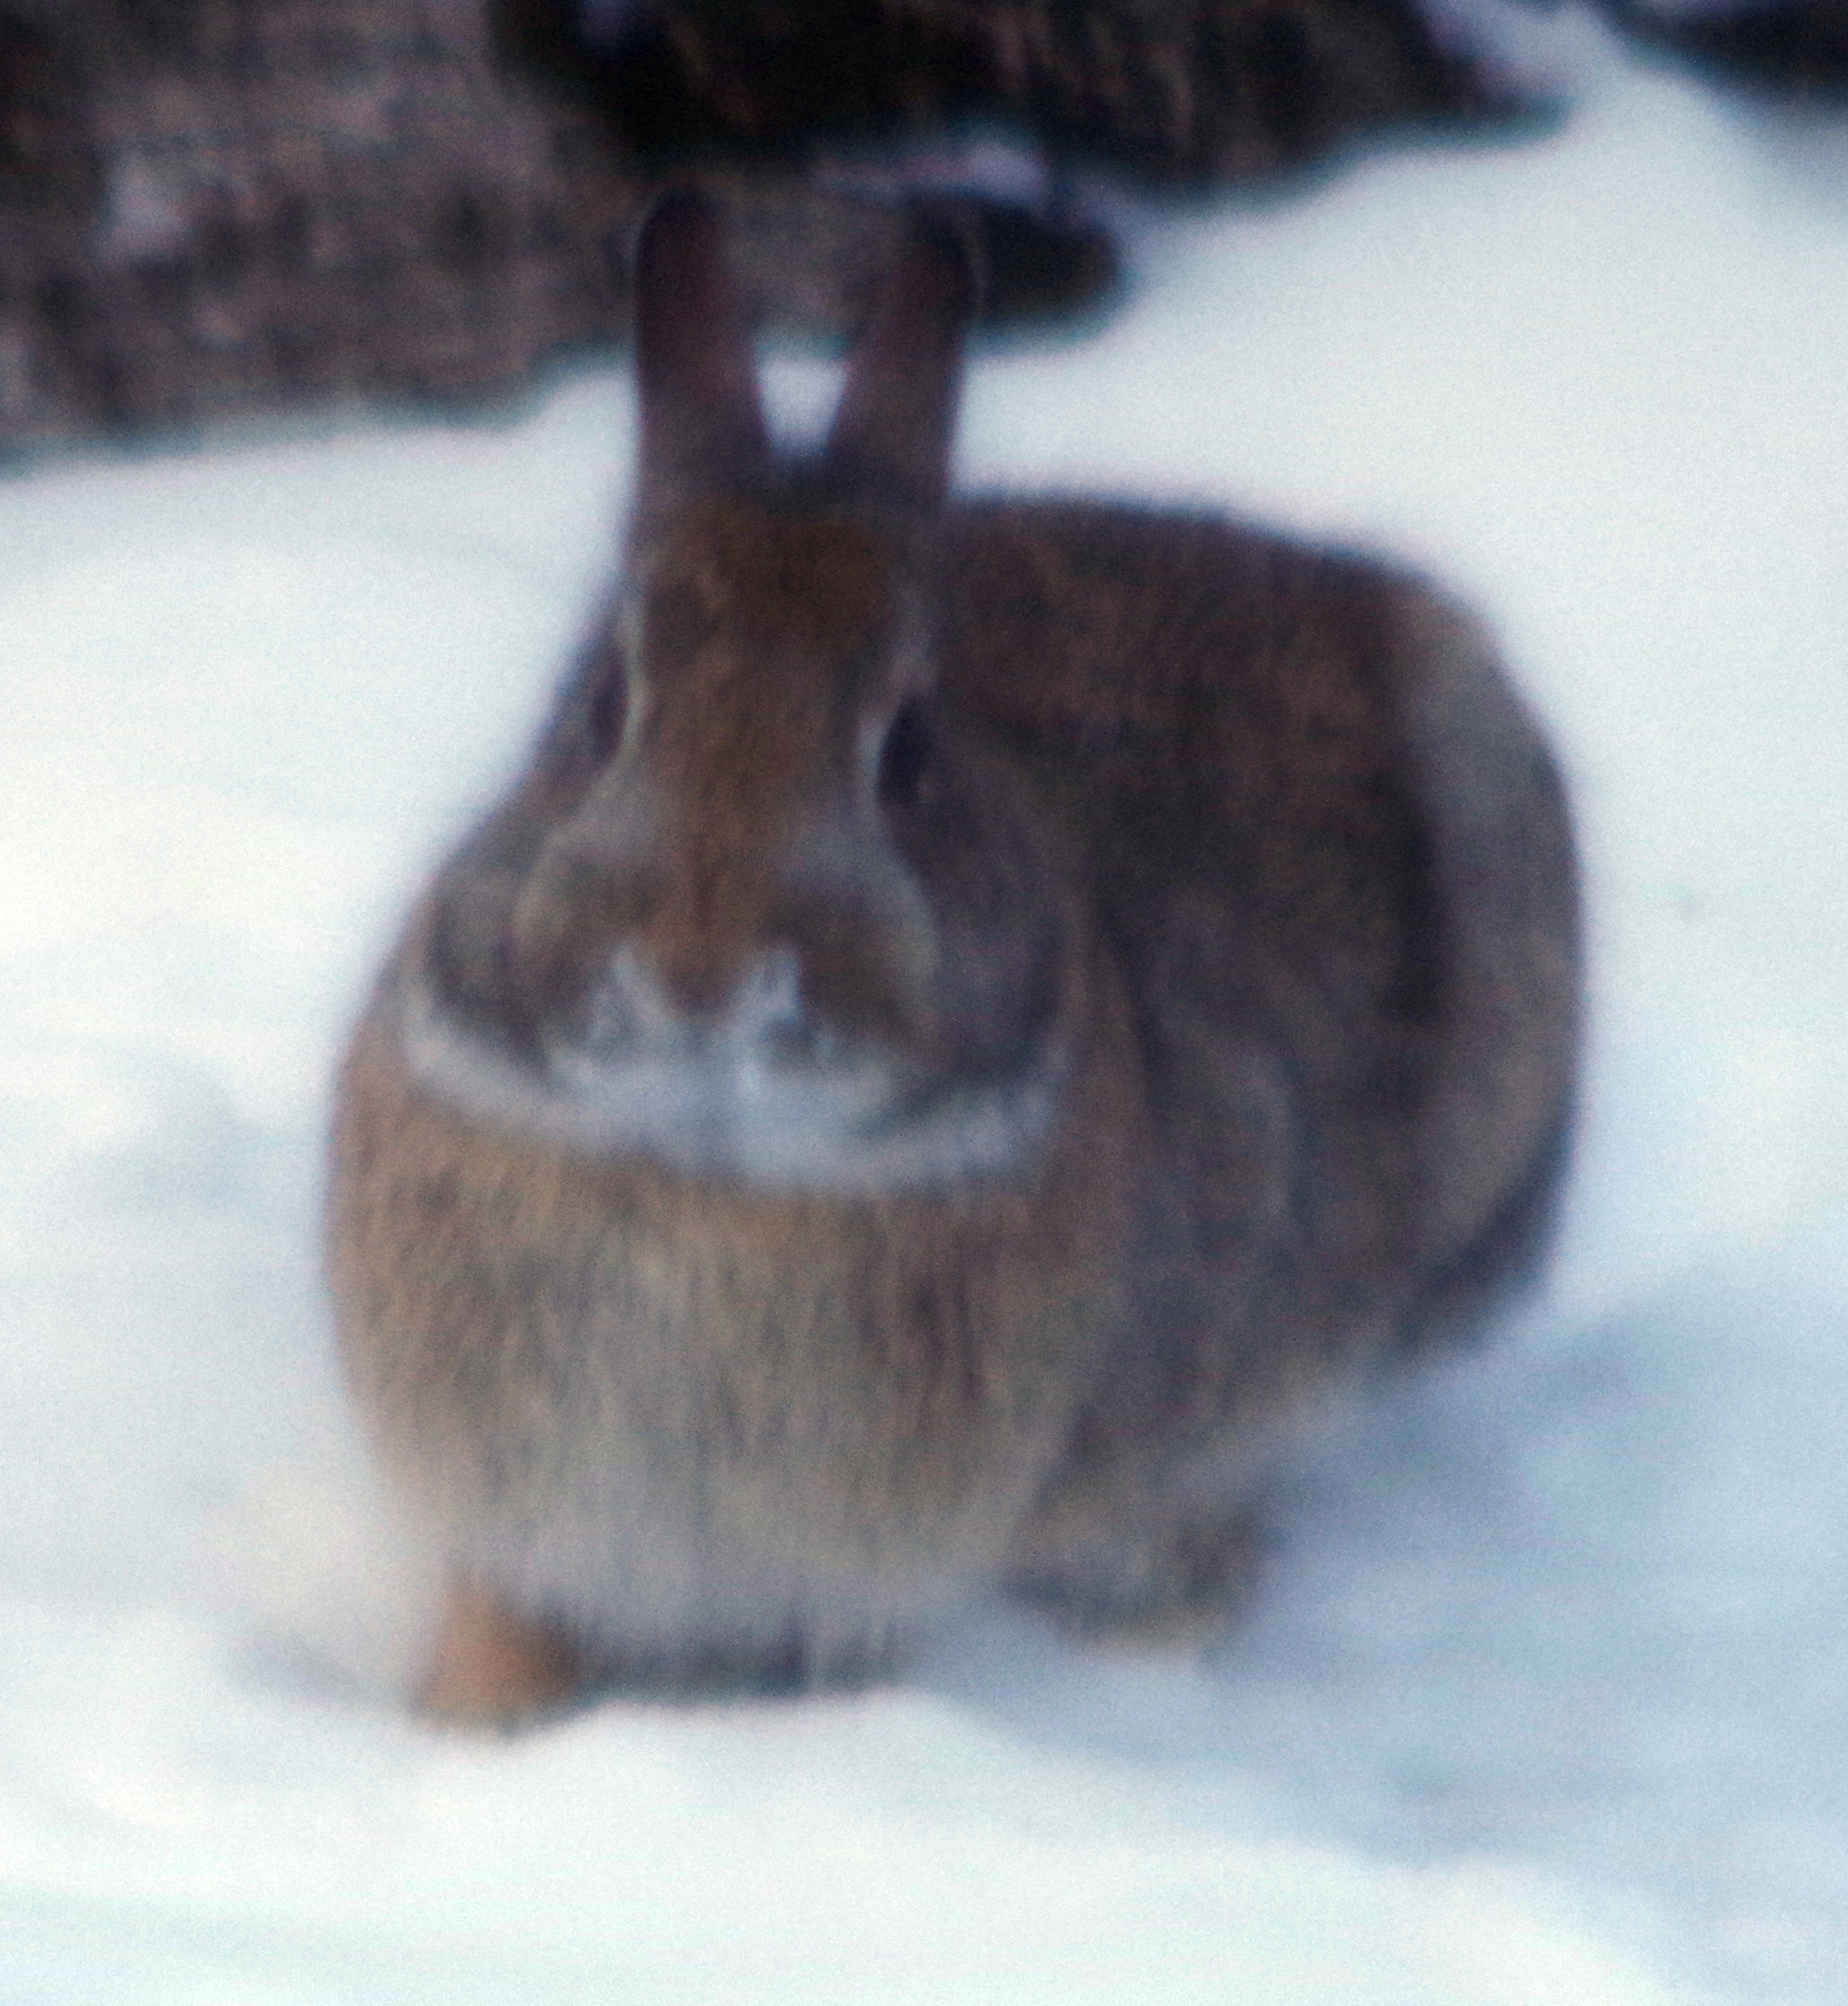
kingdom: Animalia
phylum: Chordata
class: Mammalia
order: Lagomorpha
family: Leporidae
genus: Sylvilagus
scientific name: Sylvilagus floridanus
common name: Eastern cottontail
